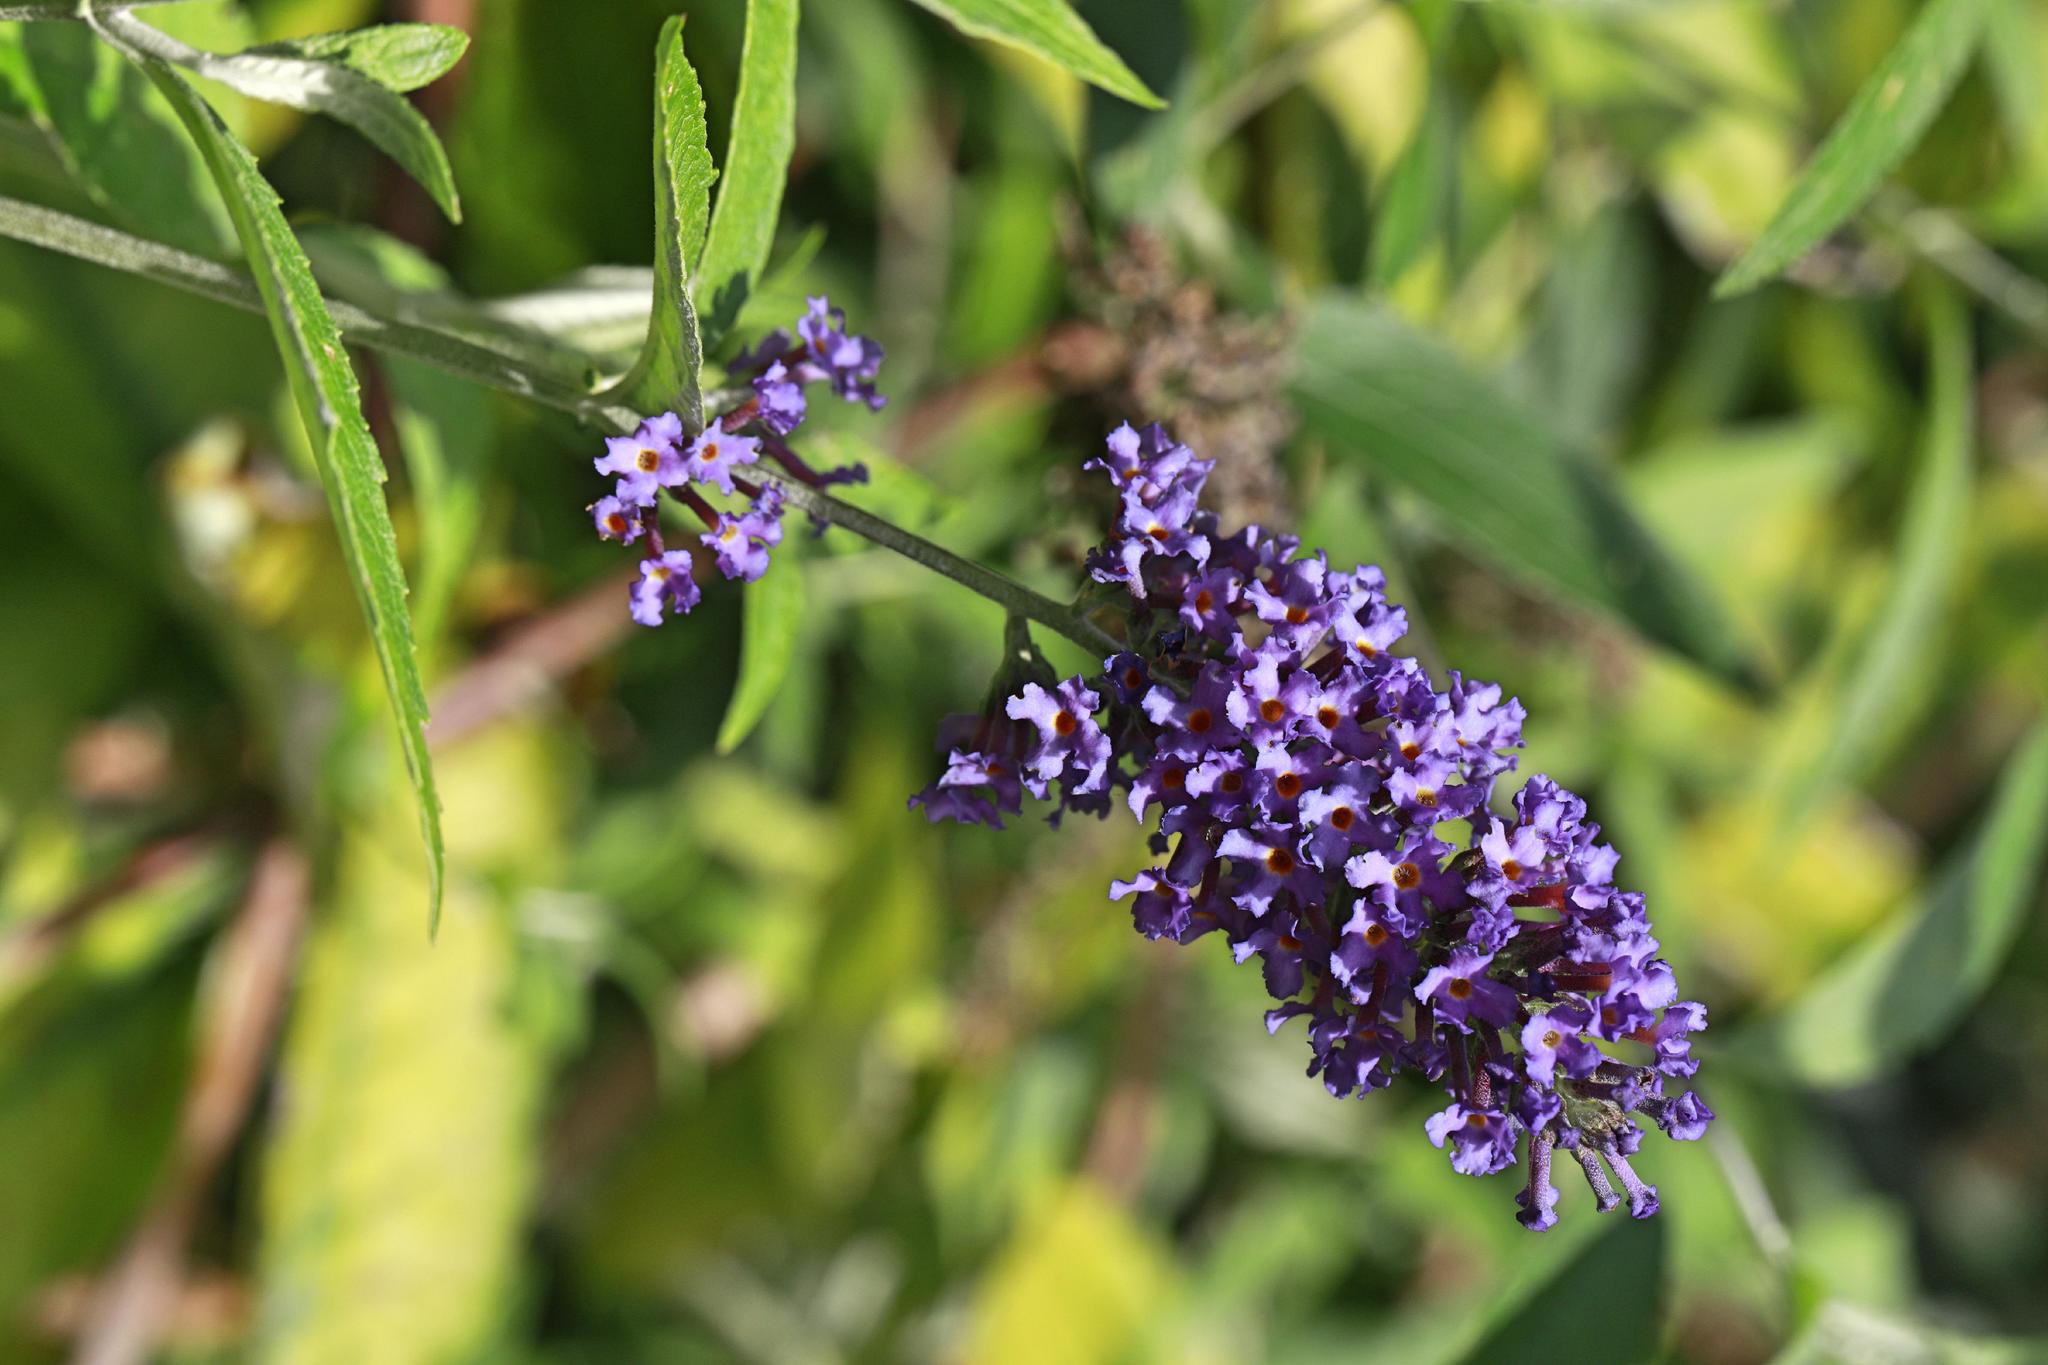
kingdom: Plantae
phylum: Tracheophyta
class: Magnoliopsida
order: Lamiales
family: Scrophulariaceae
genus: Buddleja
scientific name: Buddleja davidii
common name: Butterfly-bush
